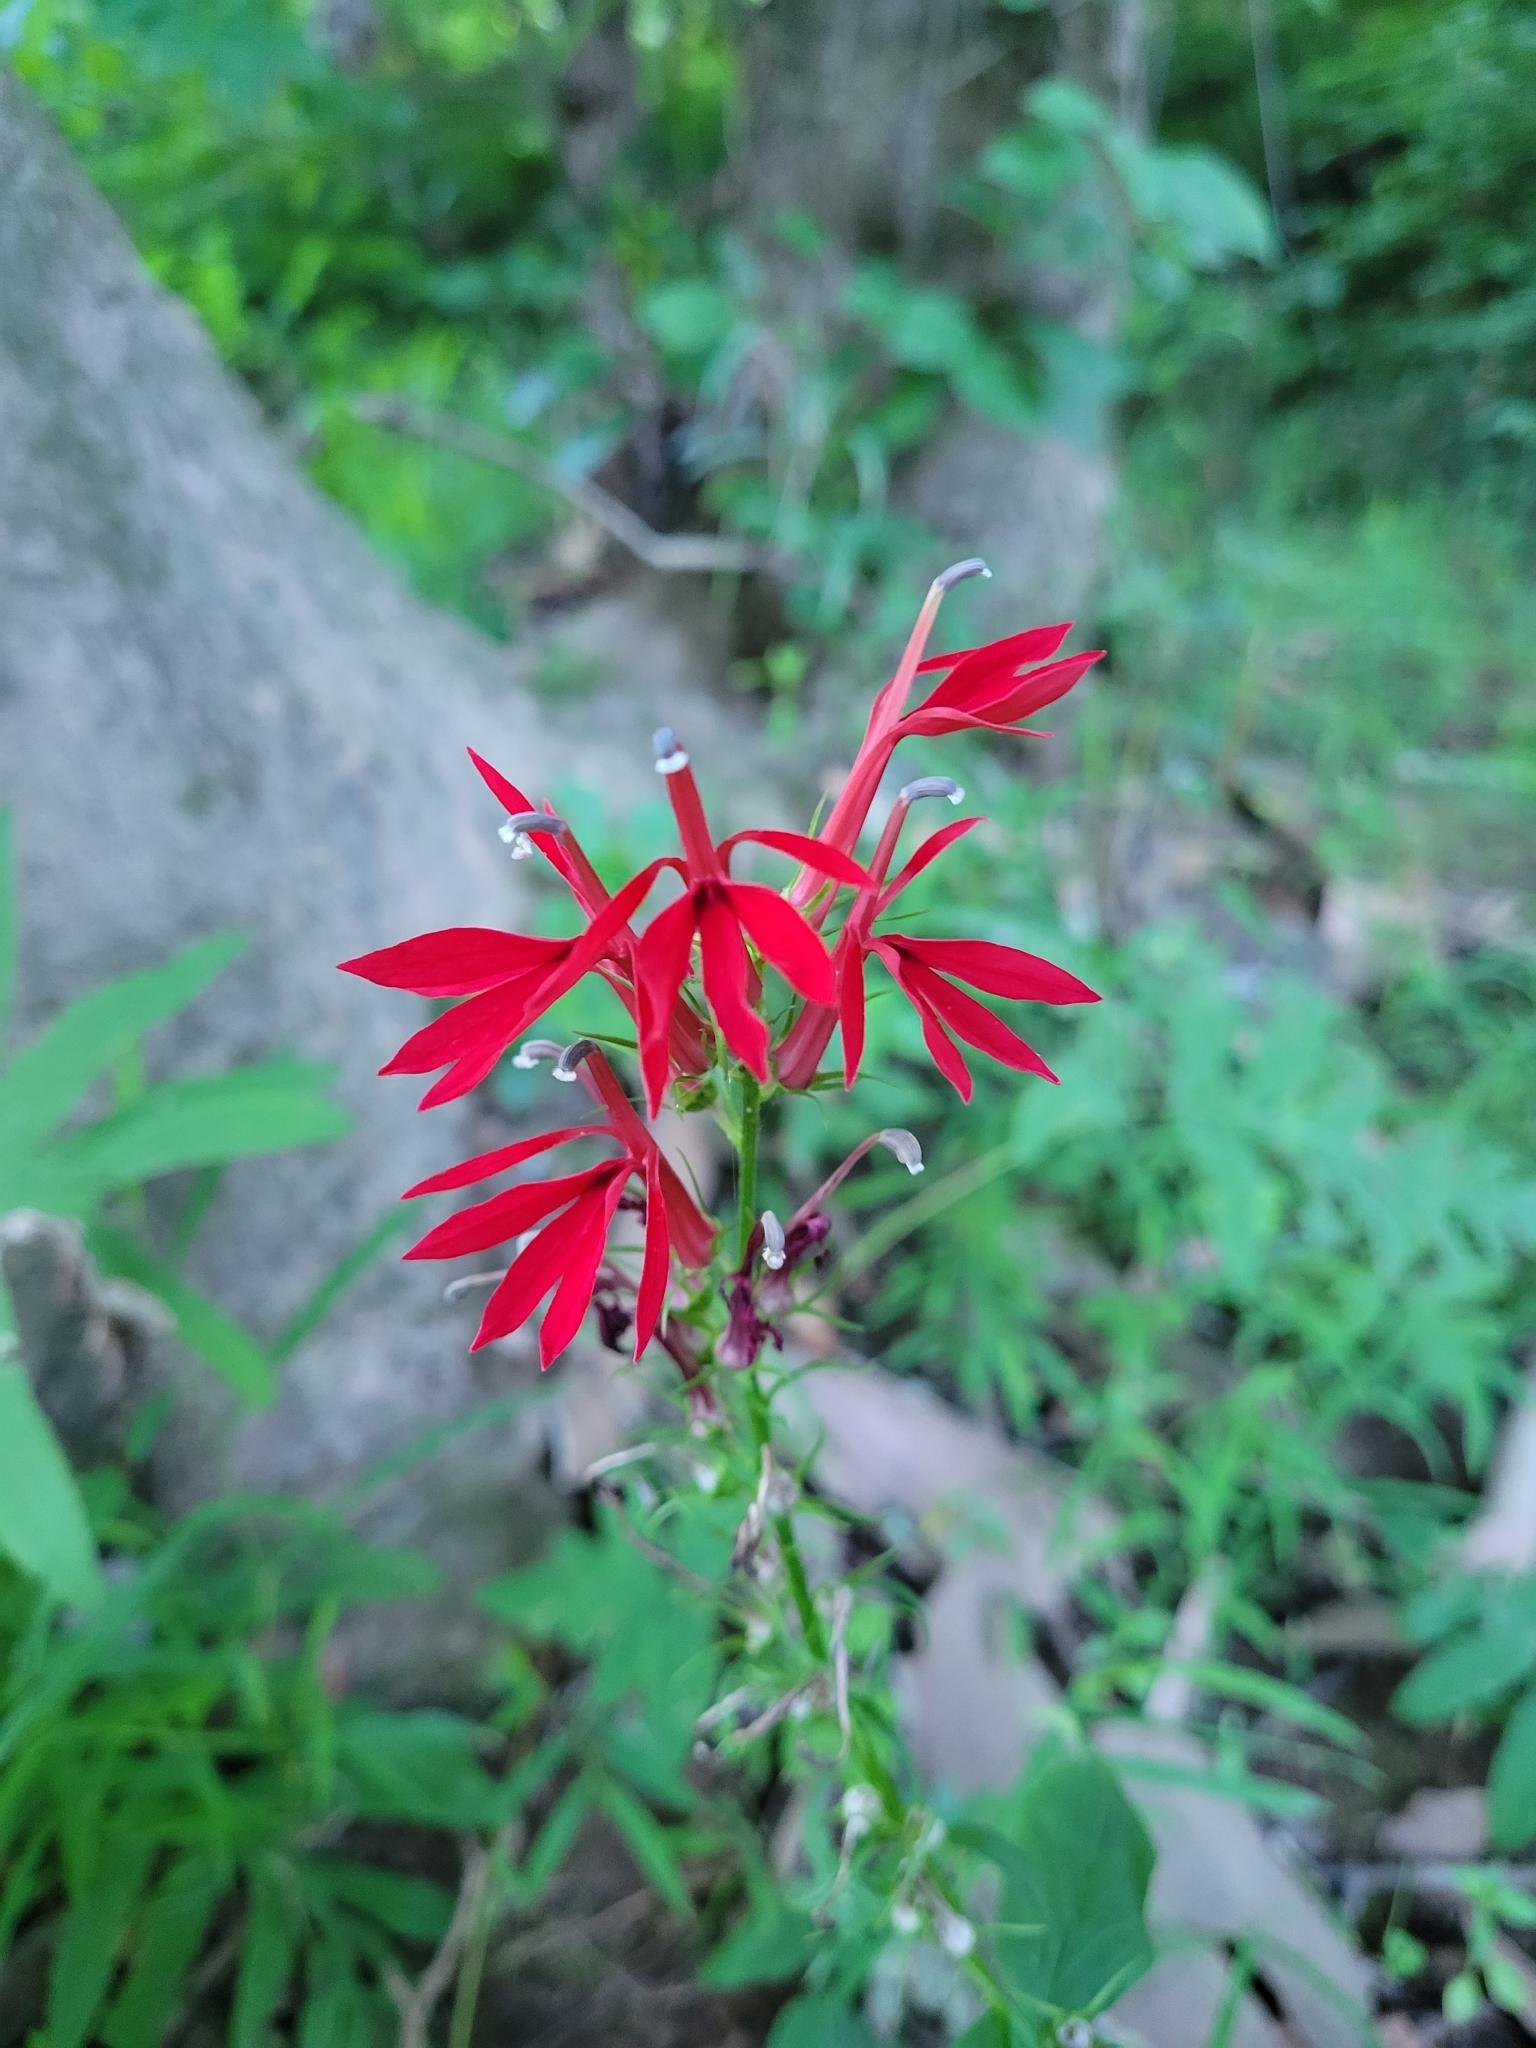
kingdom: Plantae
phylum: Tracheophyta
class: Magnoliopsida
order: Asterales
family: Campanulaceae
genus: Lobelia
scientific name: Lobelia cardinalis
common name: Cardinal flower
